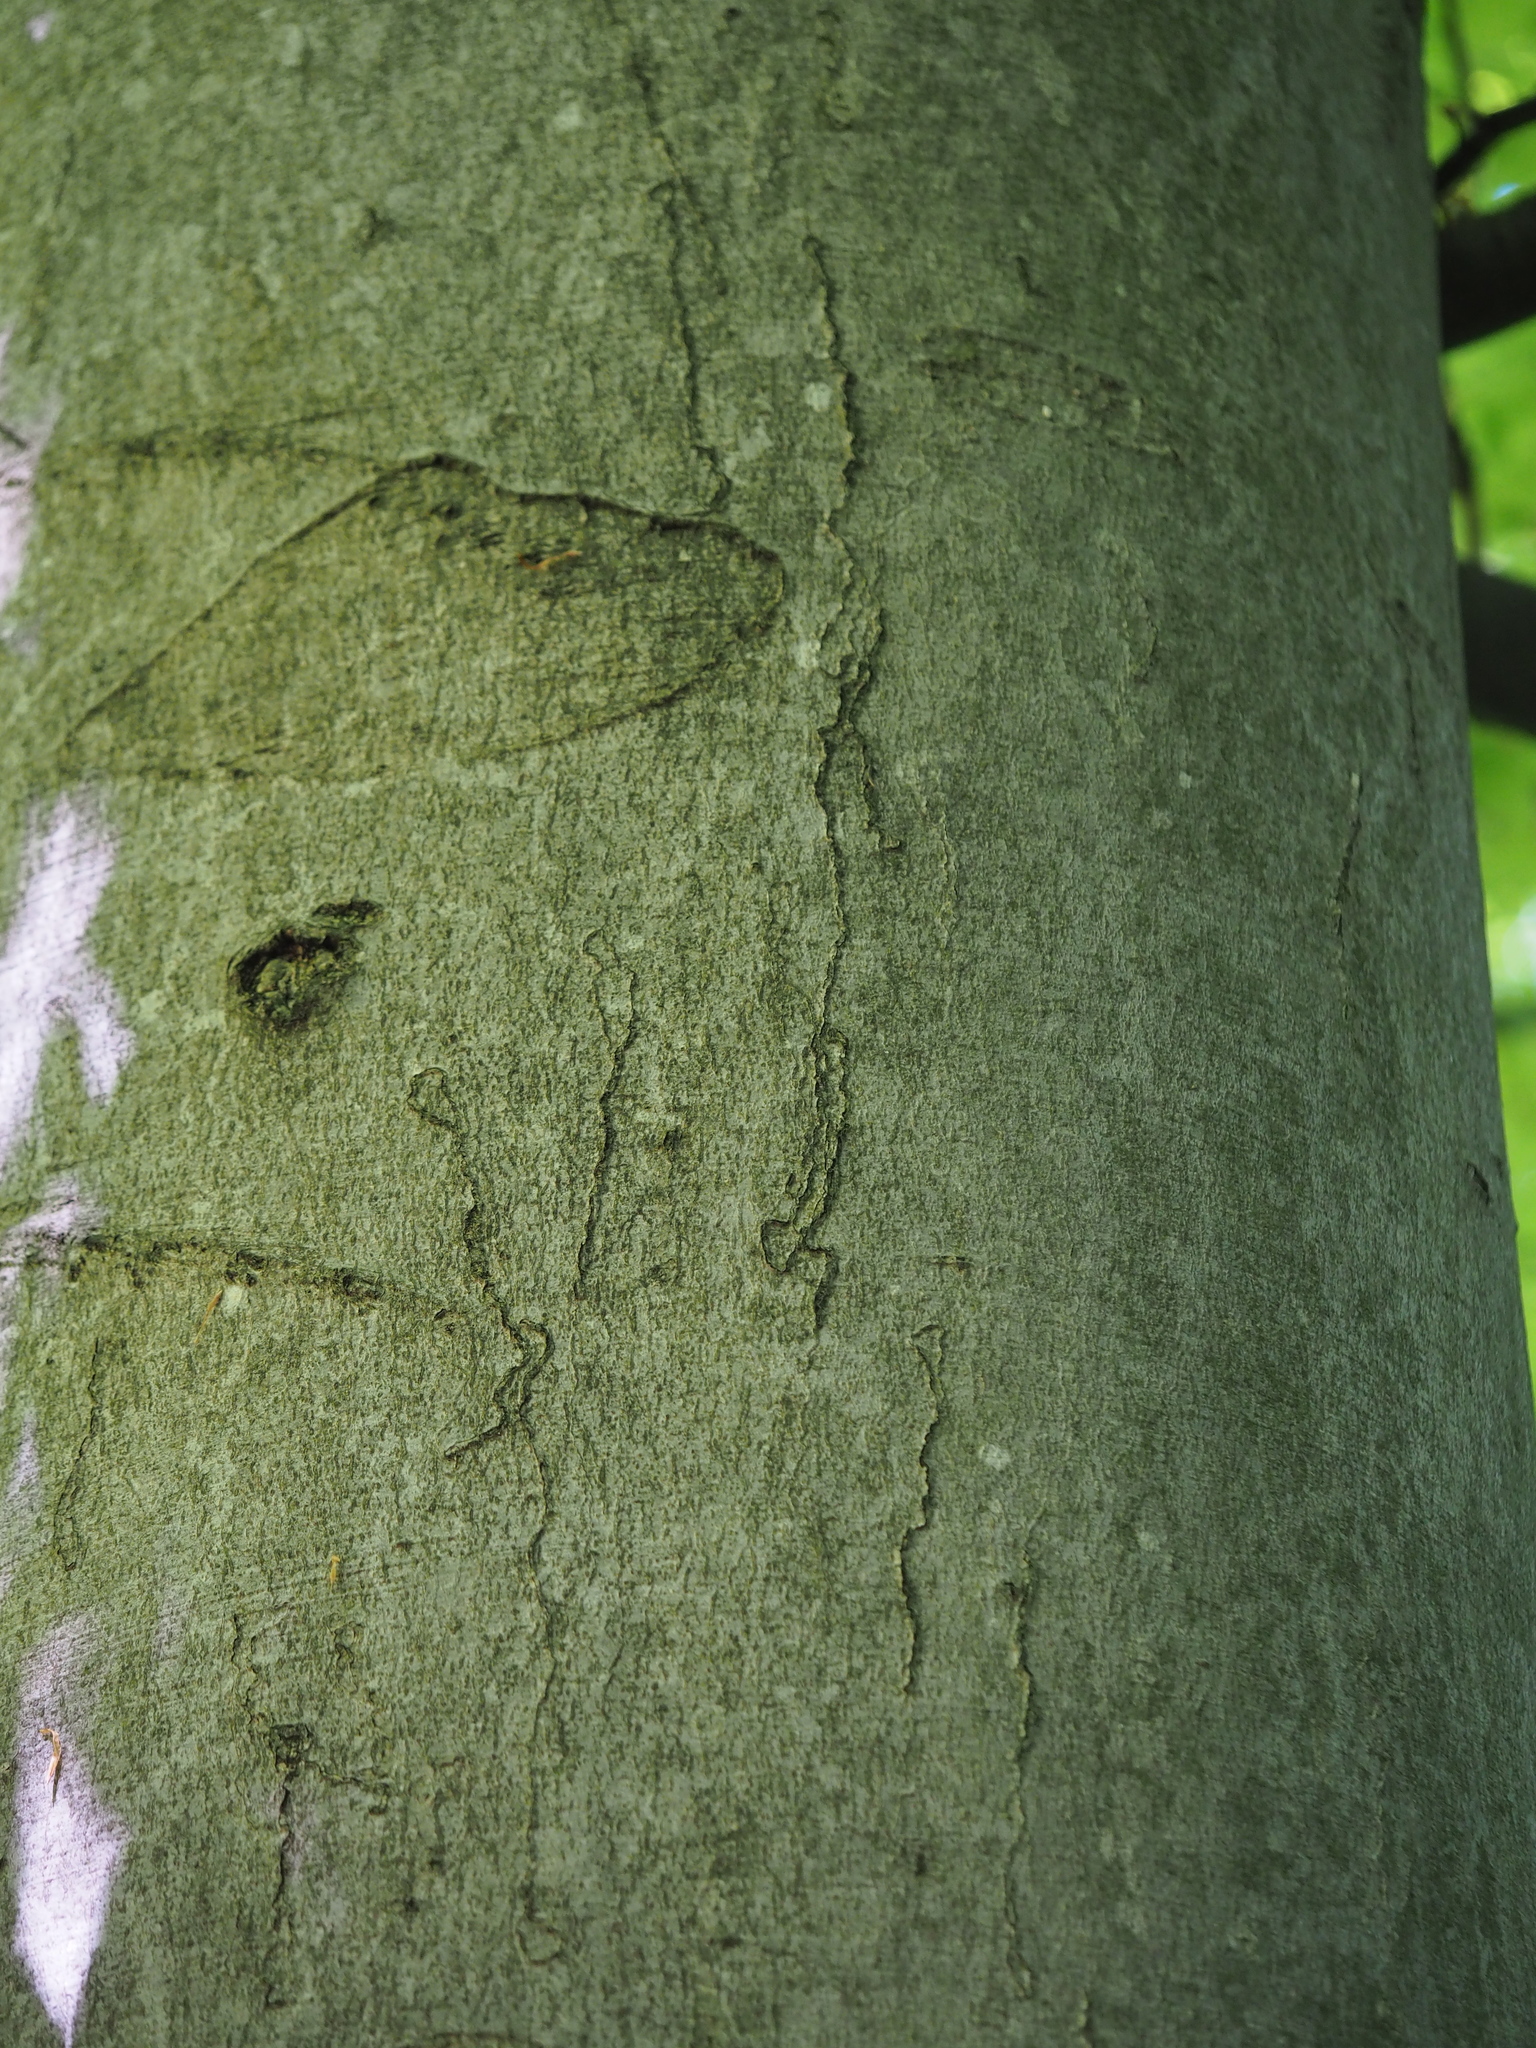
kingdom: Plantae
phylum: Tracheophyta
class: Magnoliopsida
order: Fagales
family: Fagaceae
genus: Fagus
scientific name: Fagus sylvatica
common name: Beech
